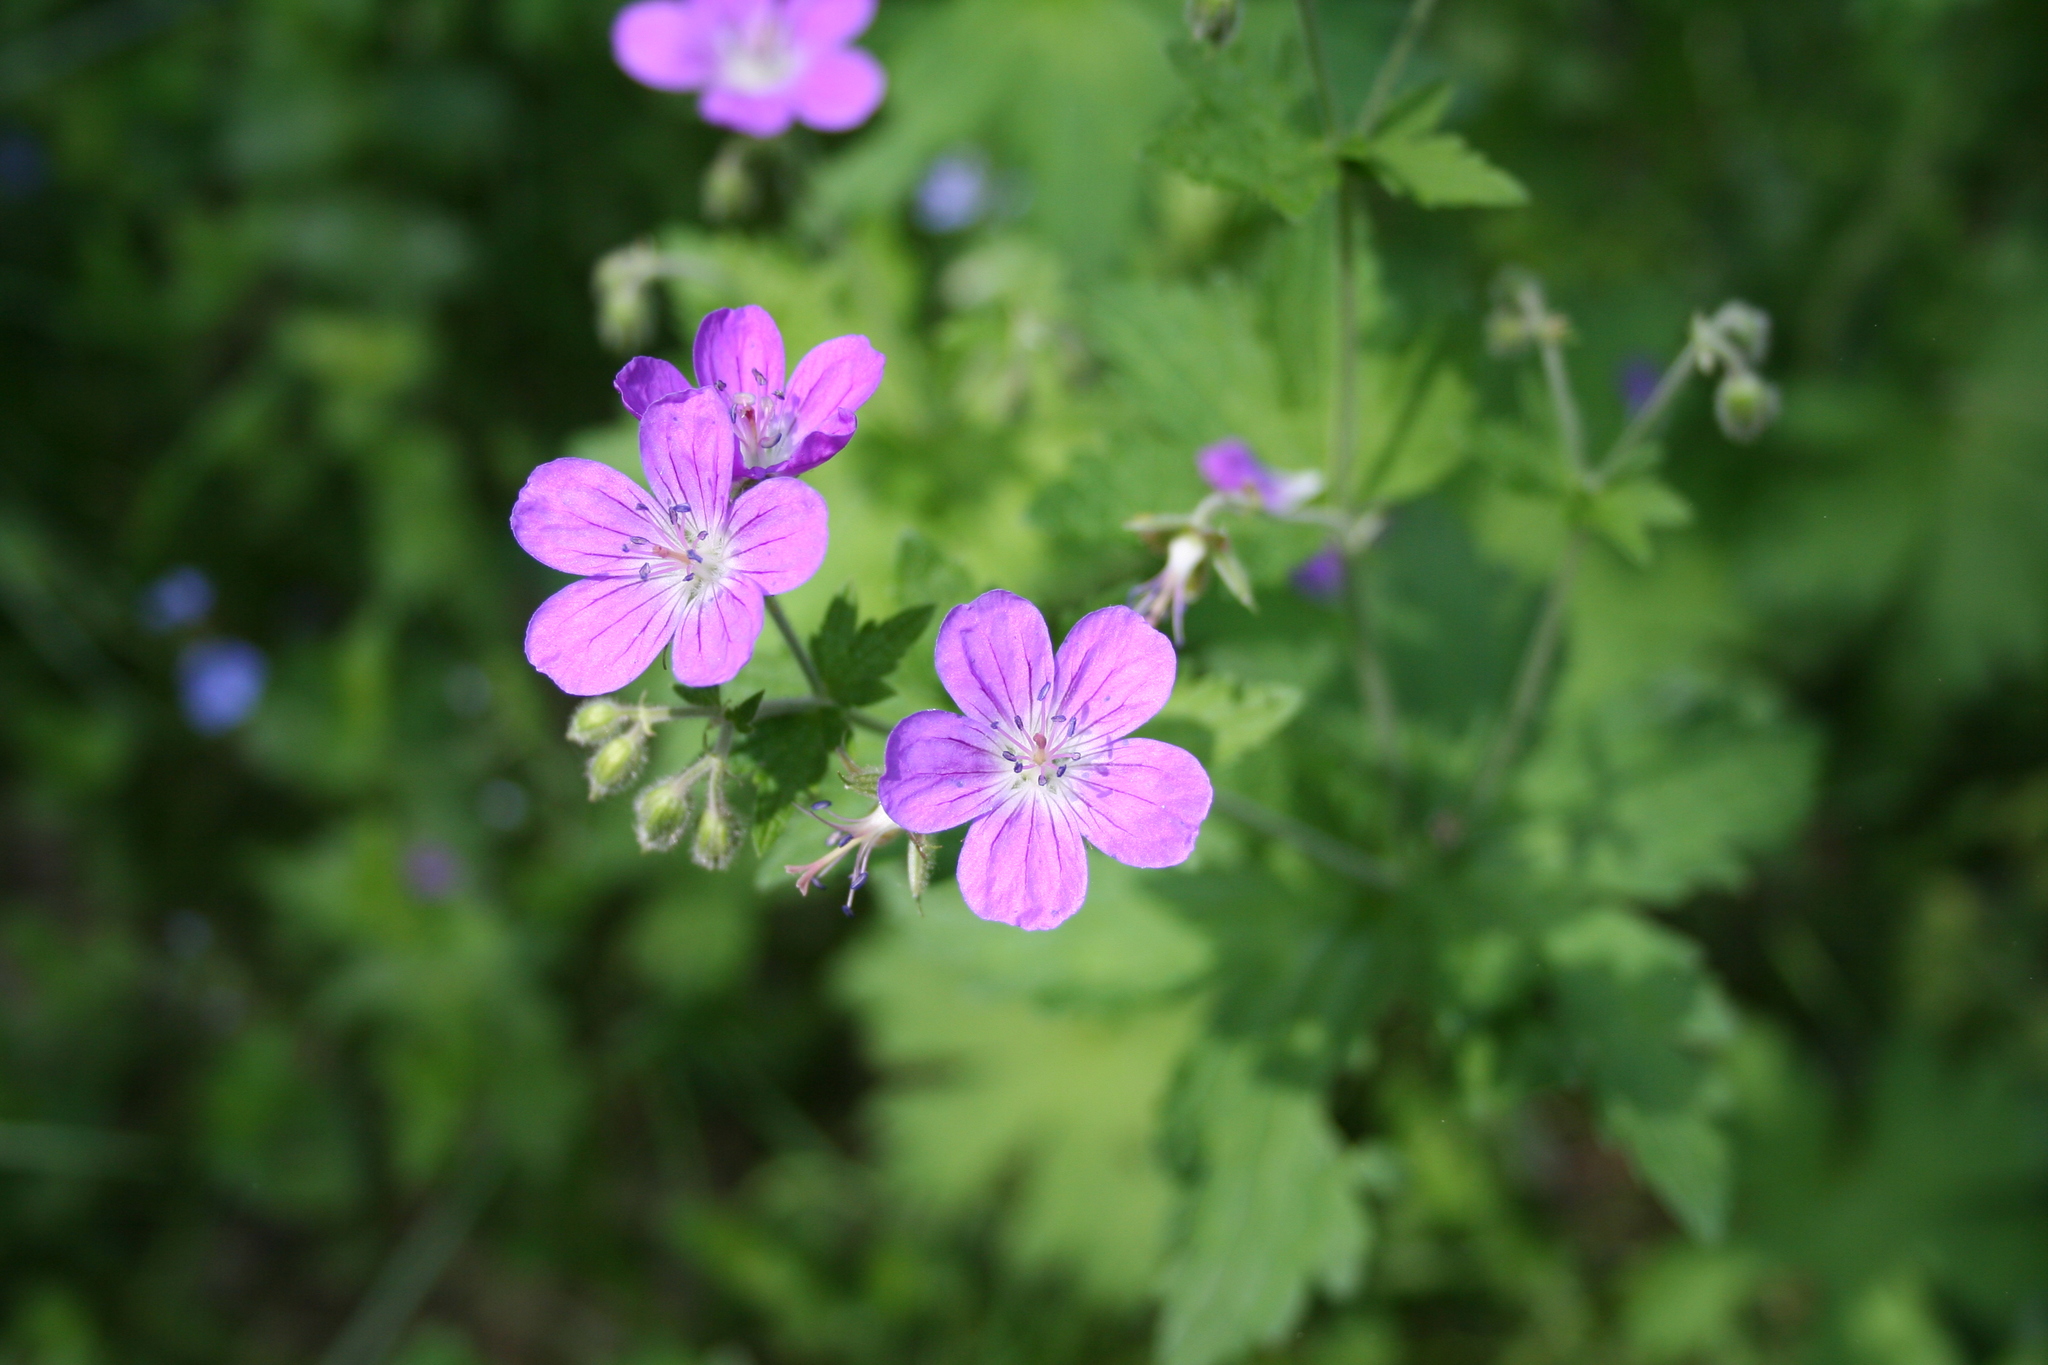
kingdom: Plantae
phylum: Tracheophyta
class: Magnoliopsida
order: Geraniales
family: Geraniaceae
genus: Geranium
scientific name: Geranium sylvaticum
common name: Wood crane's-bill
